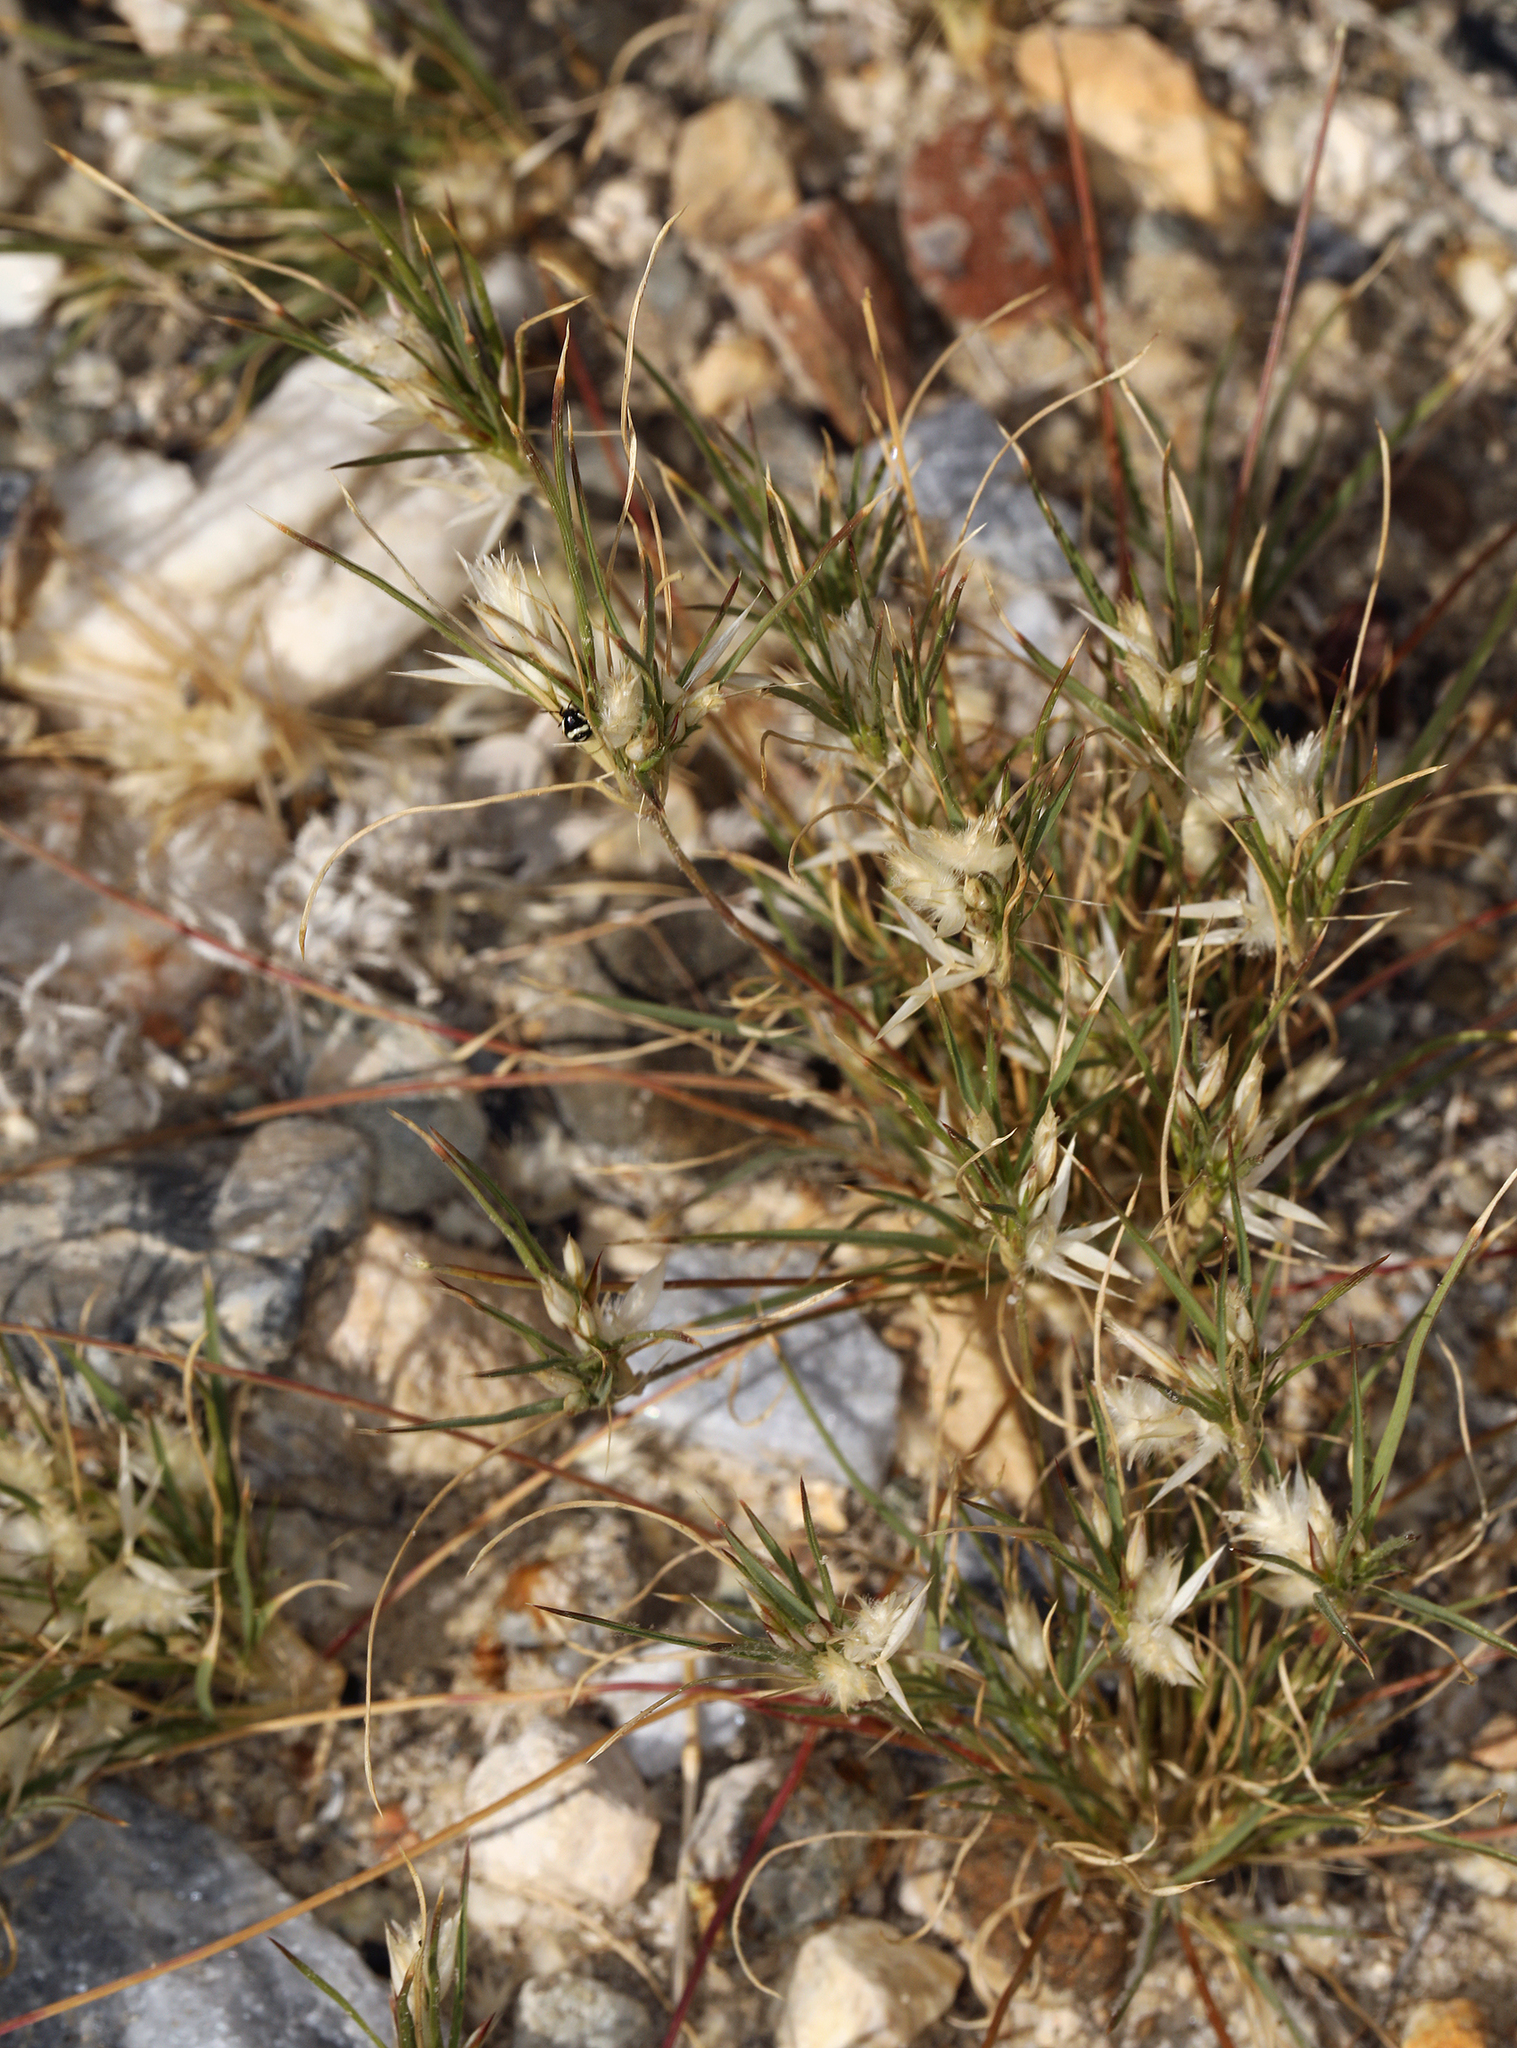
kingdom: Plantae
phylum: Tracheophyta
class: Liliopsida
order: Poales
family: Poaceae
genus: Dasyochloa
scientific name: Dasyochloa pulchella
